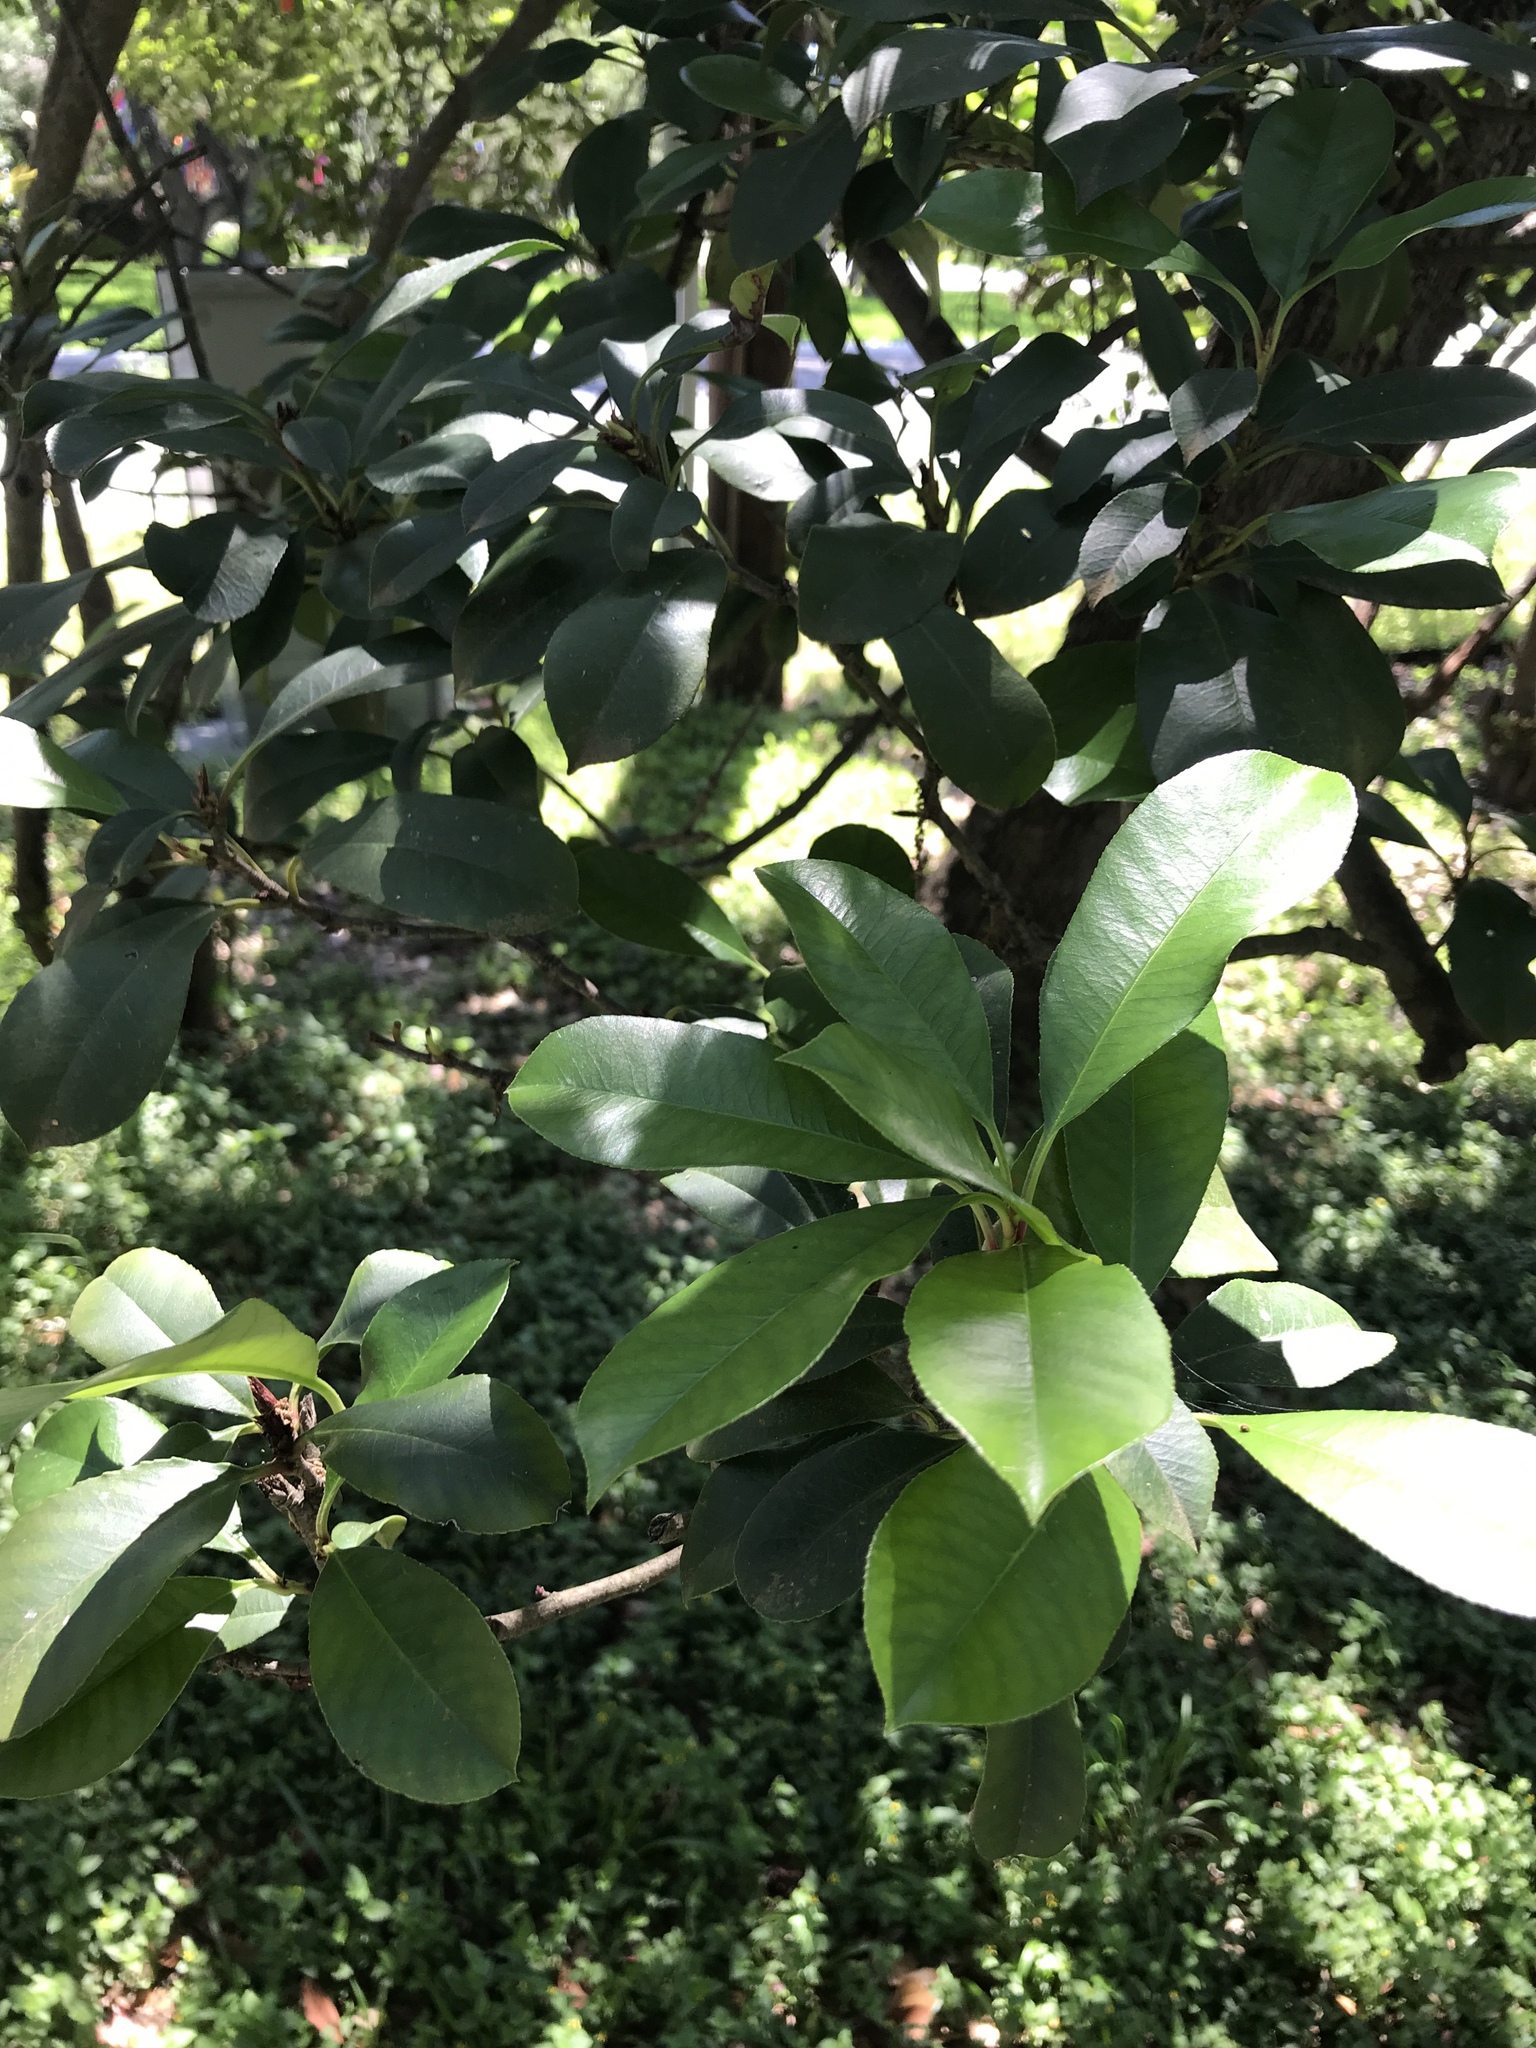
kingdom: Plantae
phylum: Tracheophyta
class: Magnoliopsida
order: Rosales
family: Rosaceae
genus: Photinia
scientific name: Photinia fraseri
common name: Fraser's photinia
